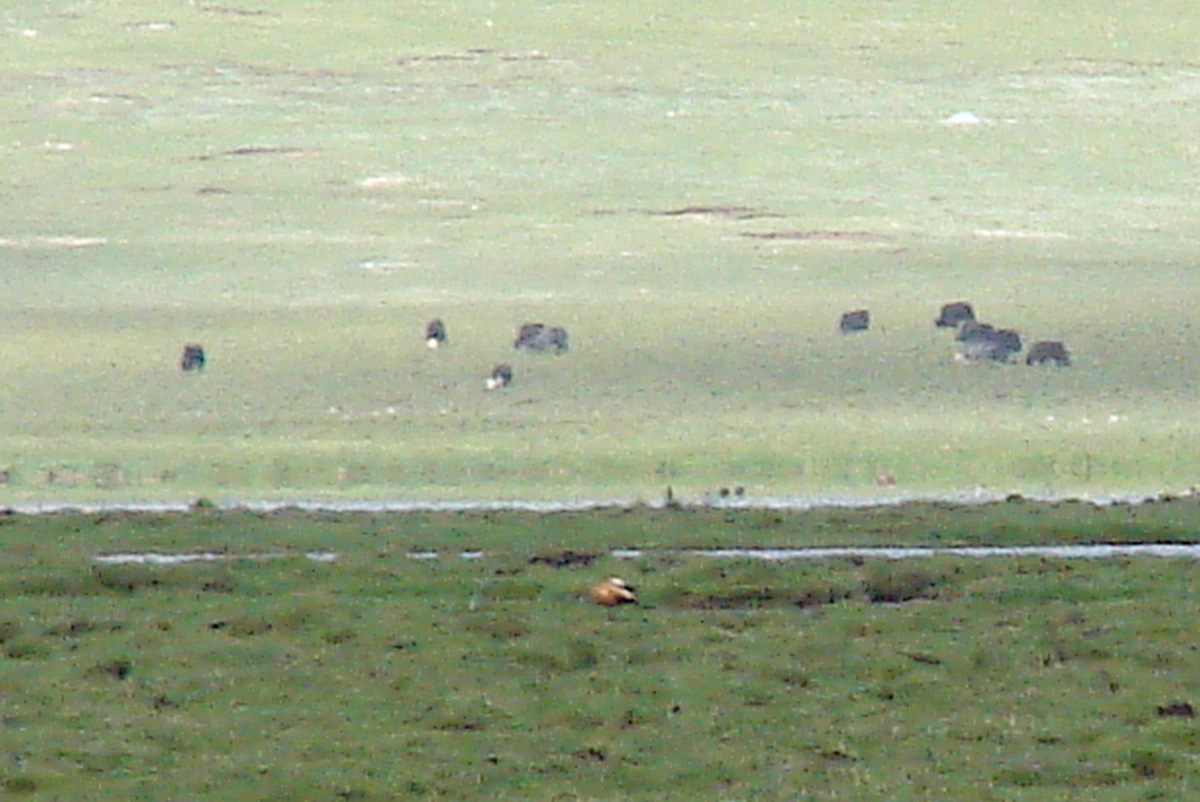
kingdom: Animalia
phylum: Chordata
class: Aves
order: Anseriformes
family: Anatidae
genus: Tadorna
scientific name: Tadorna ferruginea
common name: Ruddy shelduck
